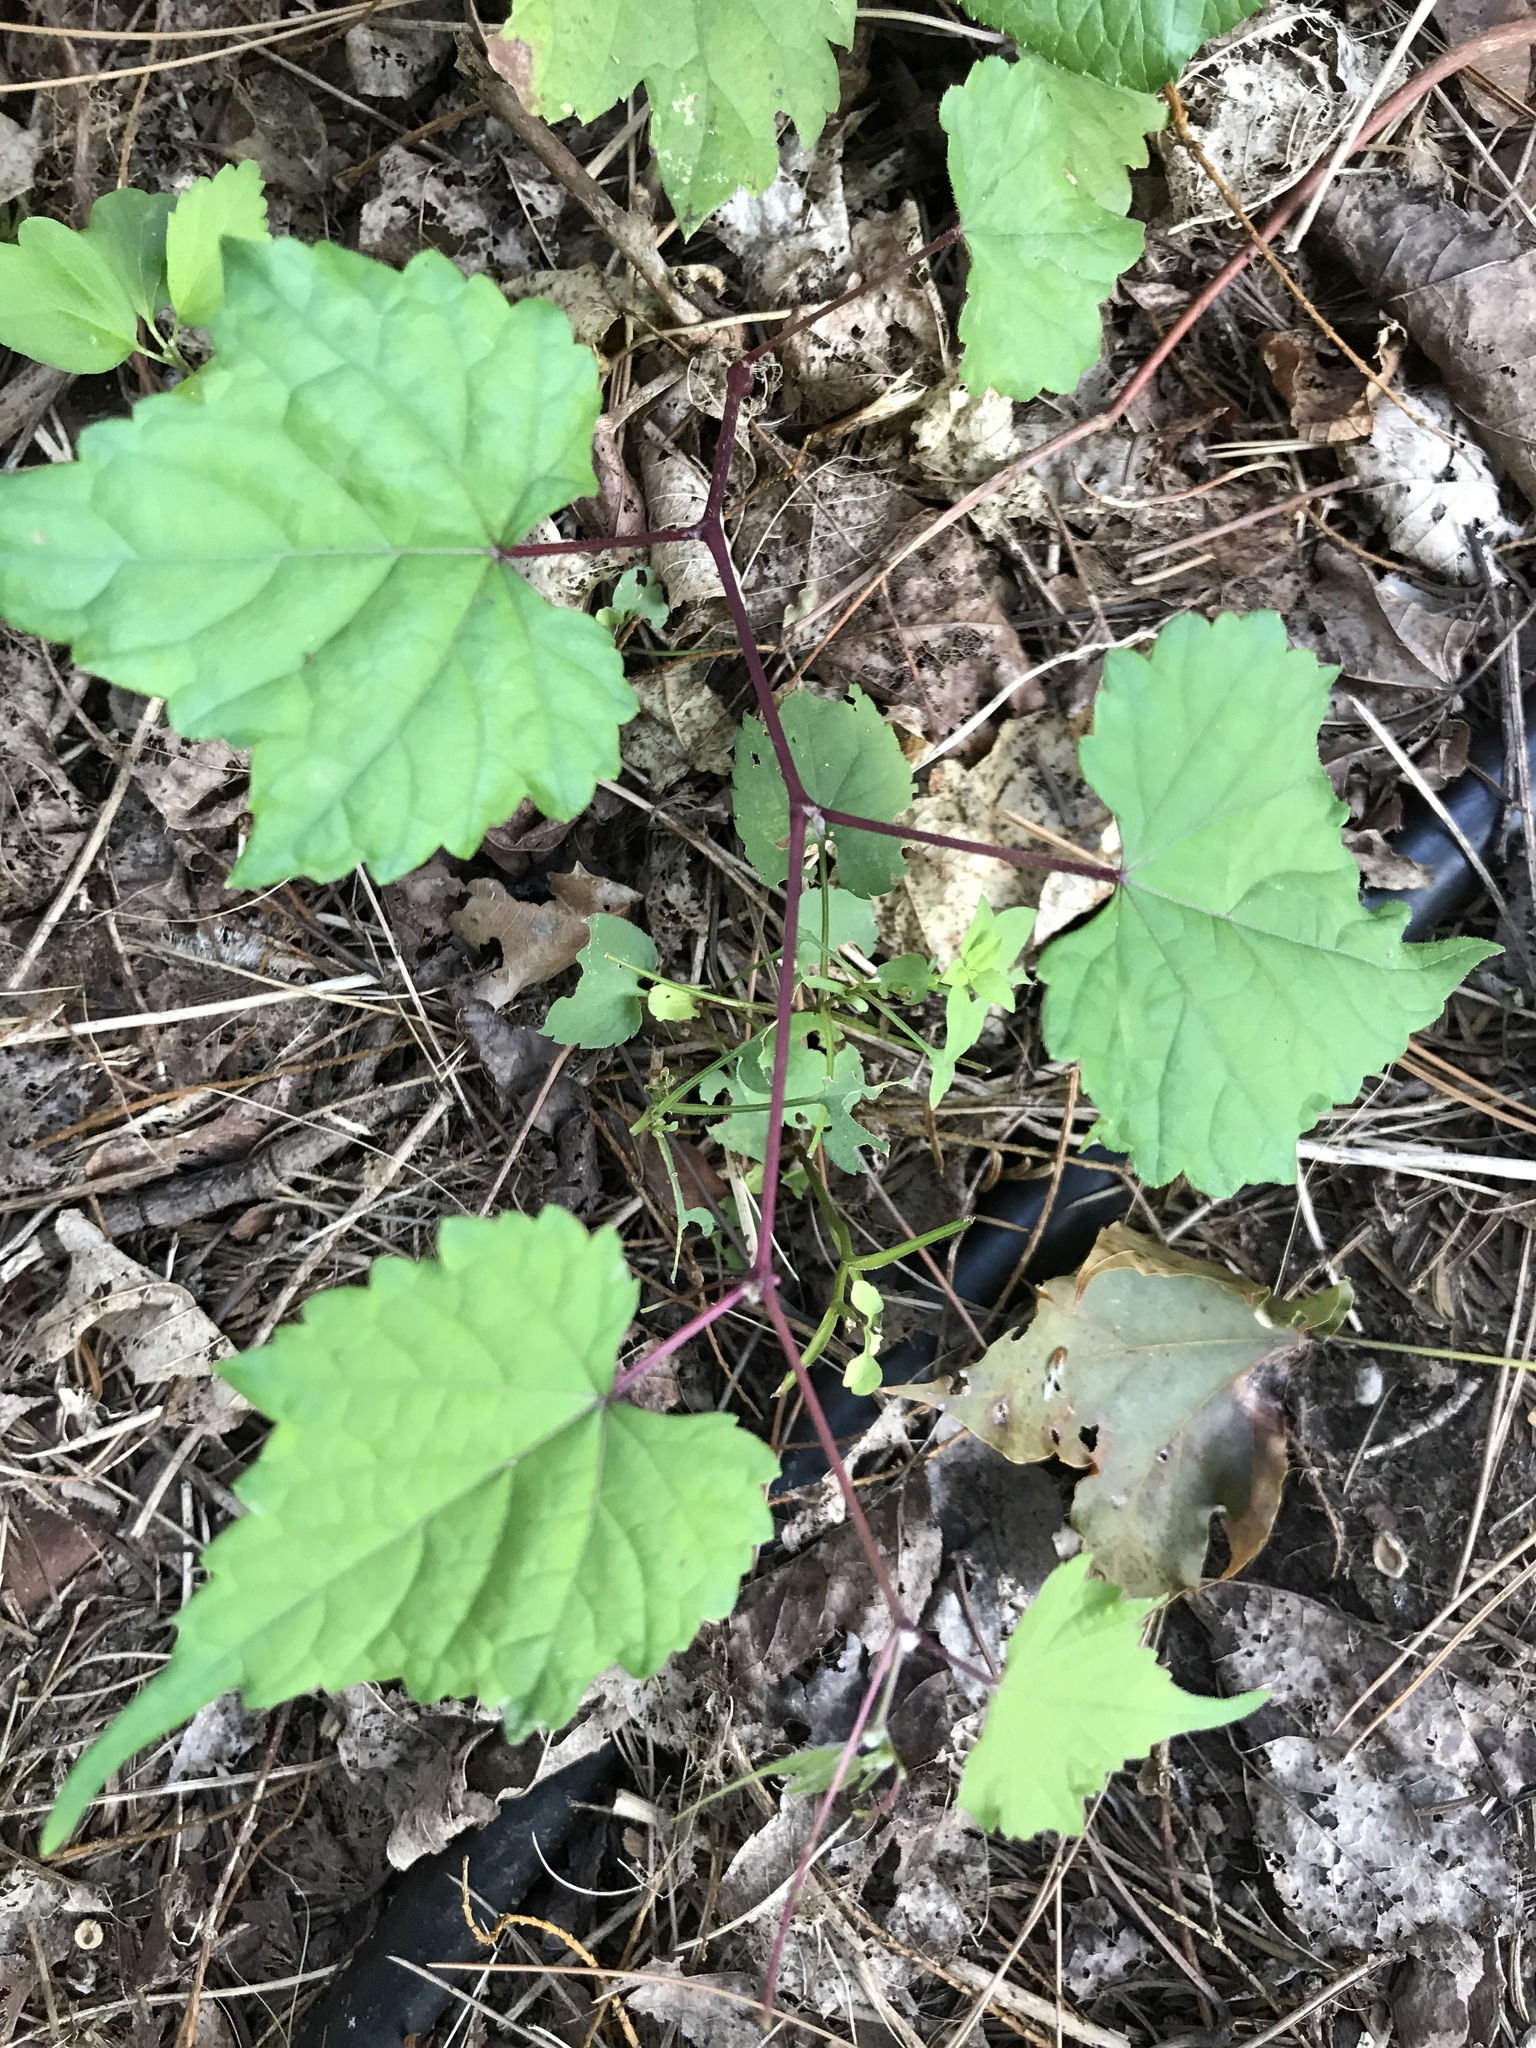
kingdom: Plantae
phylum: Tracheophyta
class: Magnoliopsida
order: Vitales
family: Vitaceae
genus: Ampelopsis
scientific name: Ampelopsis glandulosa
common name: Amur peppervine
